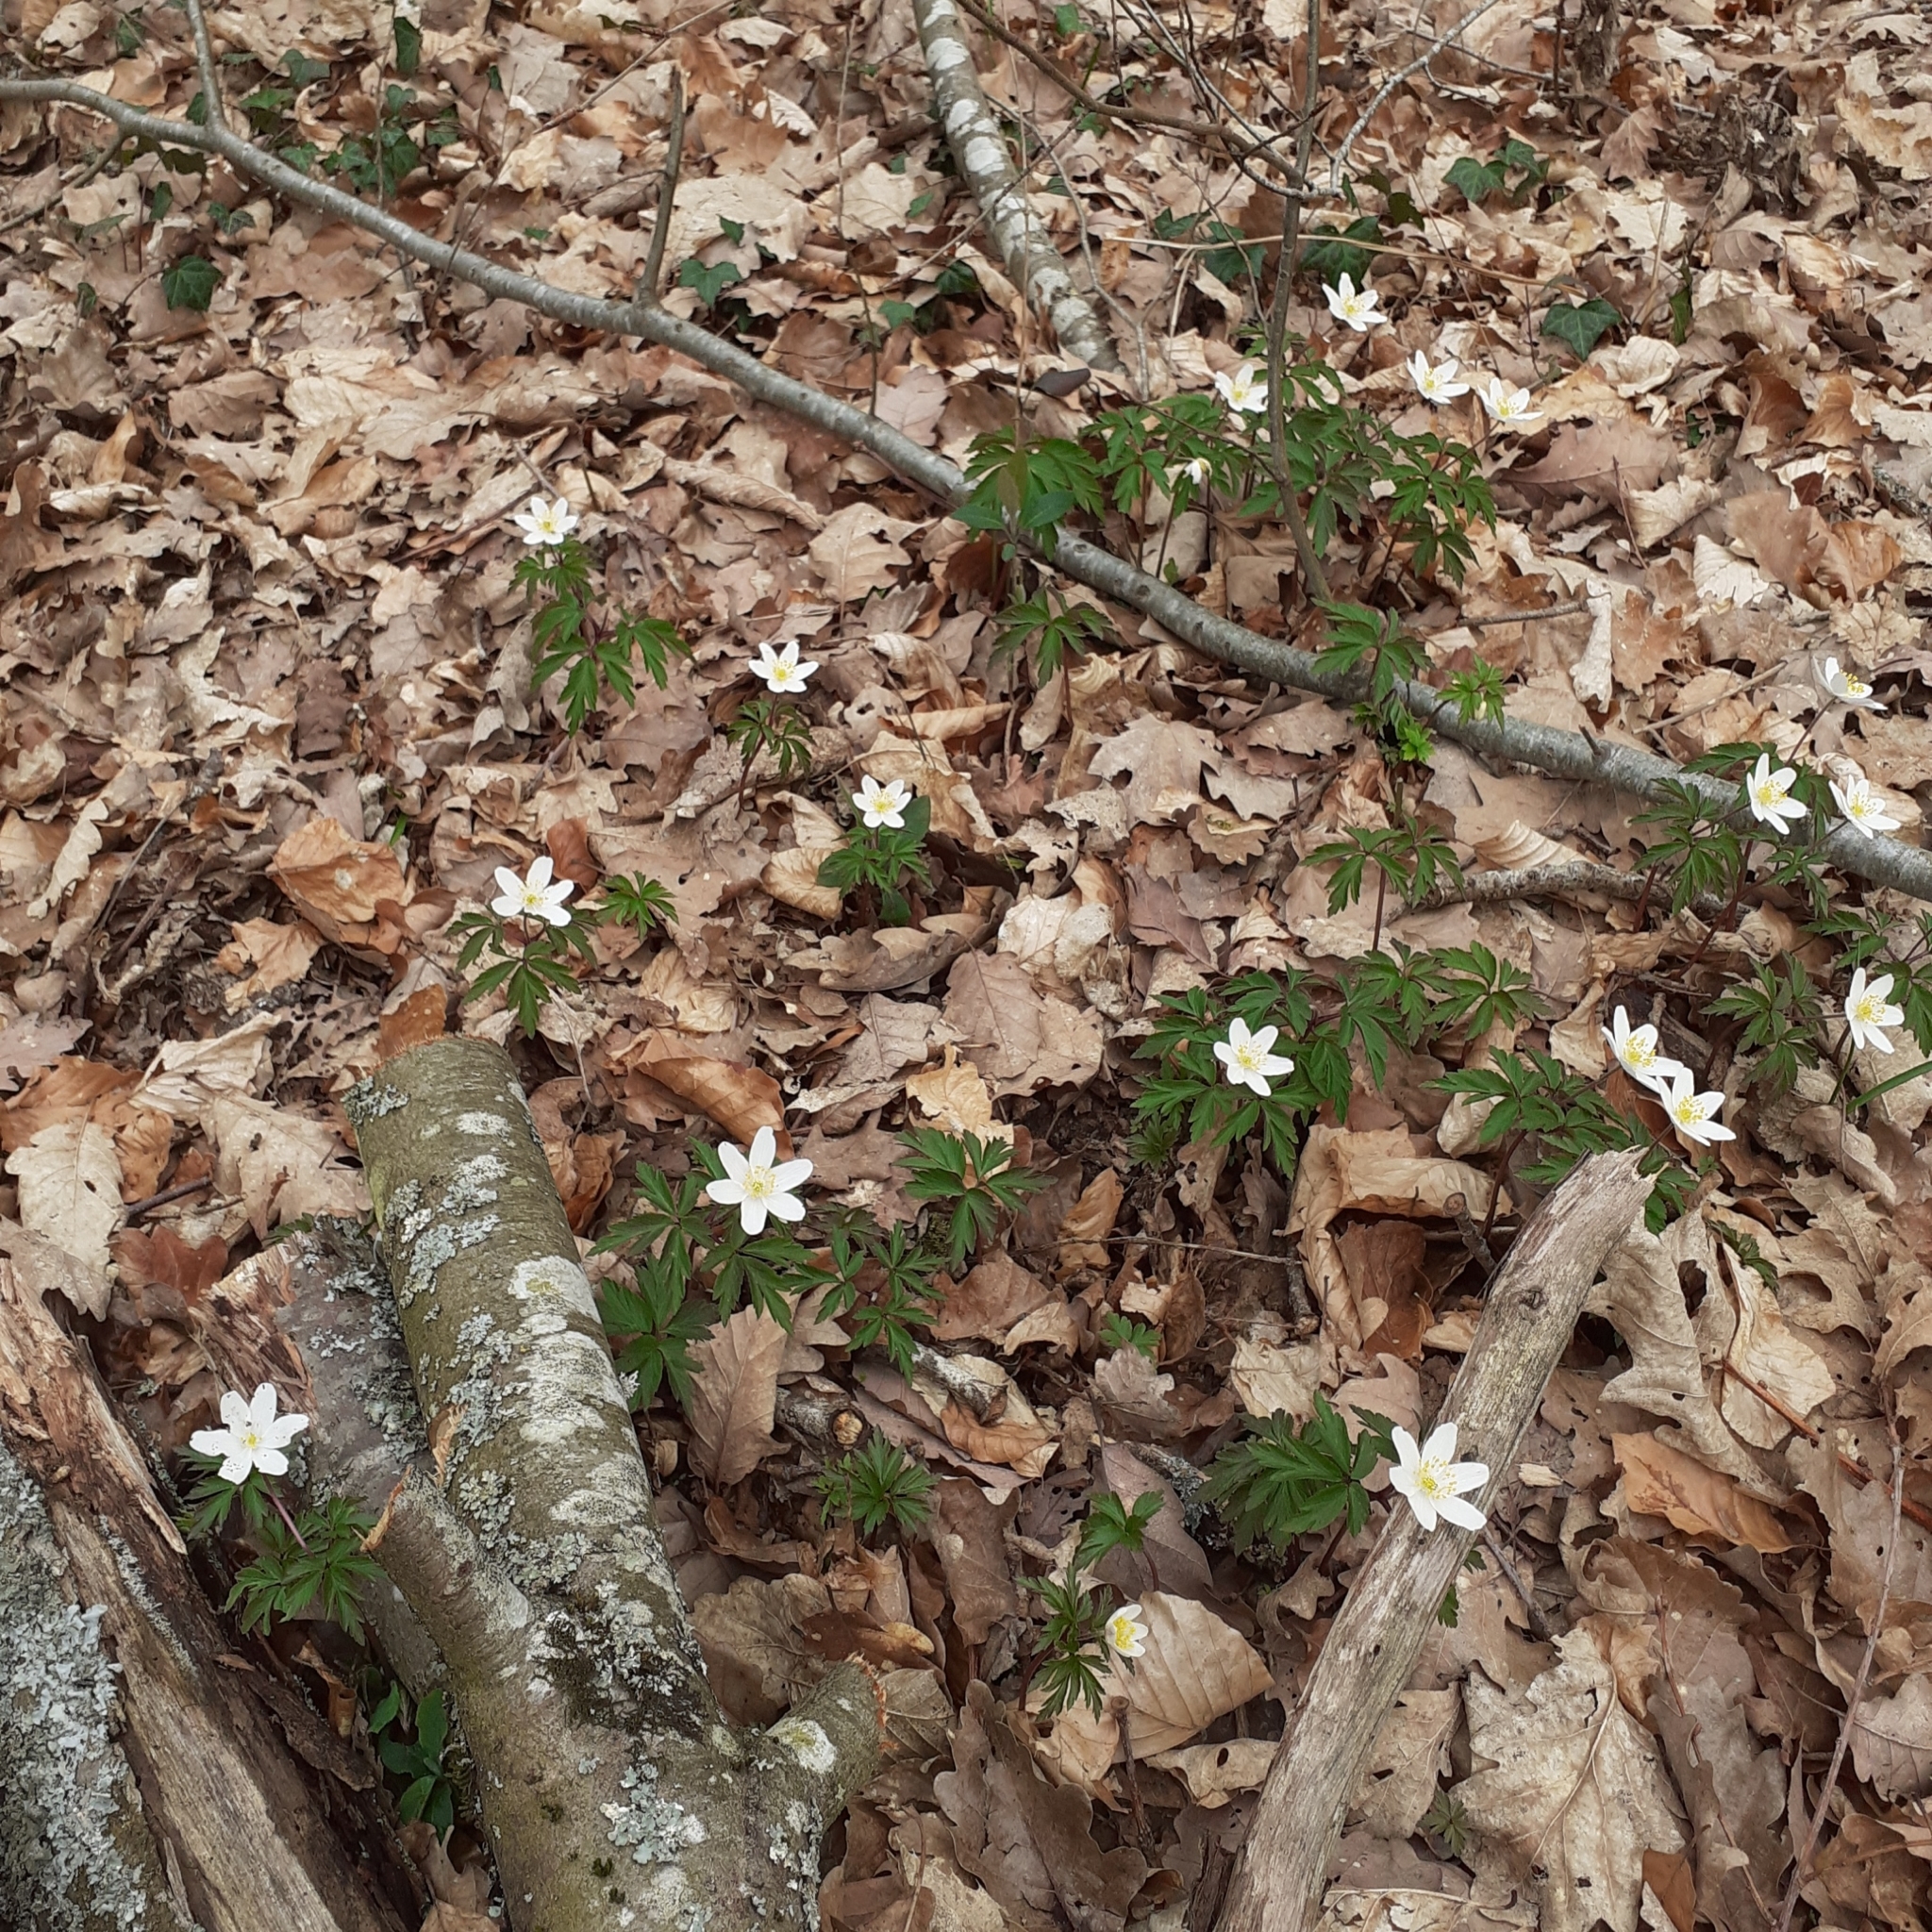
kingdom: Plantae
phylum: Tracheophyta
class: Magnoliopsida
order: Ranunculales
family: Ranunculaceae
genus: Anemone
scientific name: Anemone nemorosa
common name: Wood anemone
